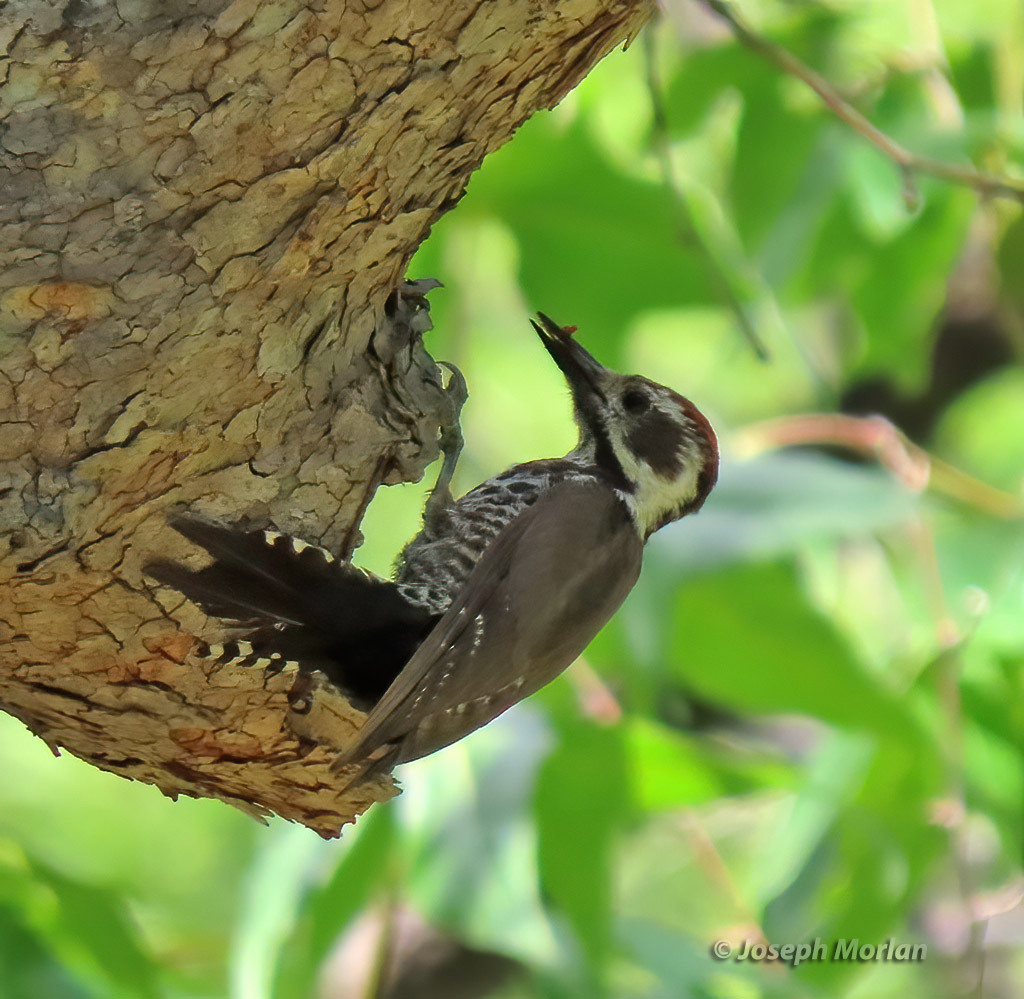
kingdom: Animalia
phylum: Chordata
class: Aves
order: Piciformes
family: Picidae
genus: Leuconotopicus
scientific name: Leuconotopicus arizonae
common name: Arizona woodpecker
